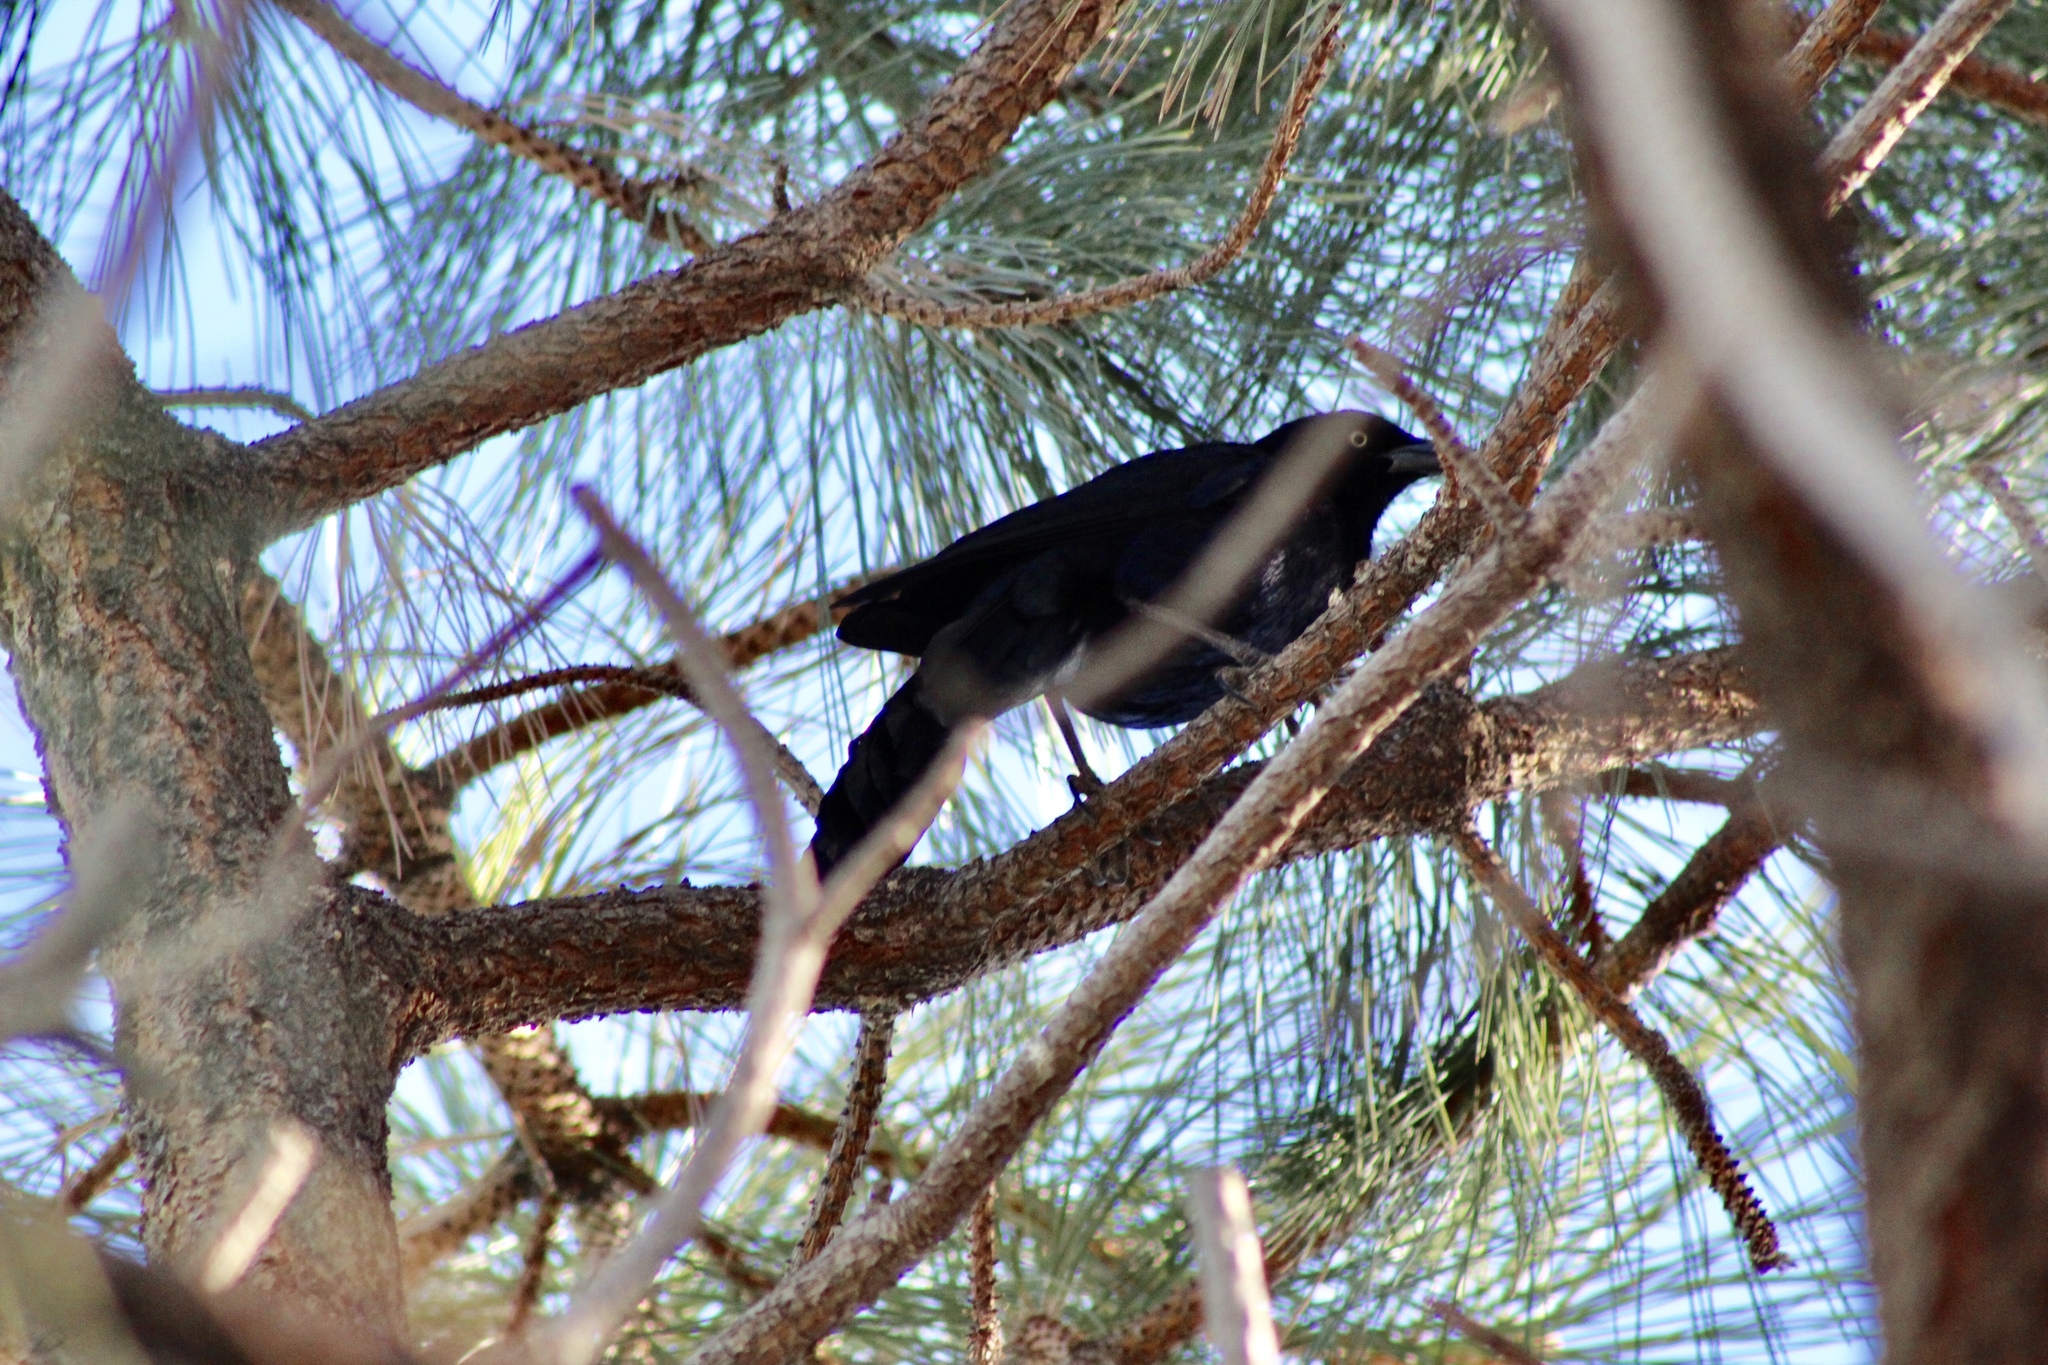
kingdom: Animalia
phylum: Chordata
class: Aves
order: Passeriformes
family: Icteridae
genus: Quiscalus
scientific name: Quiscalus mexicanus
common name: Great-tailed grackle
